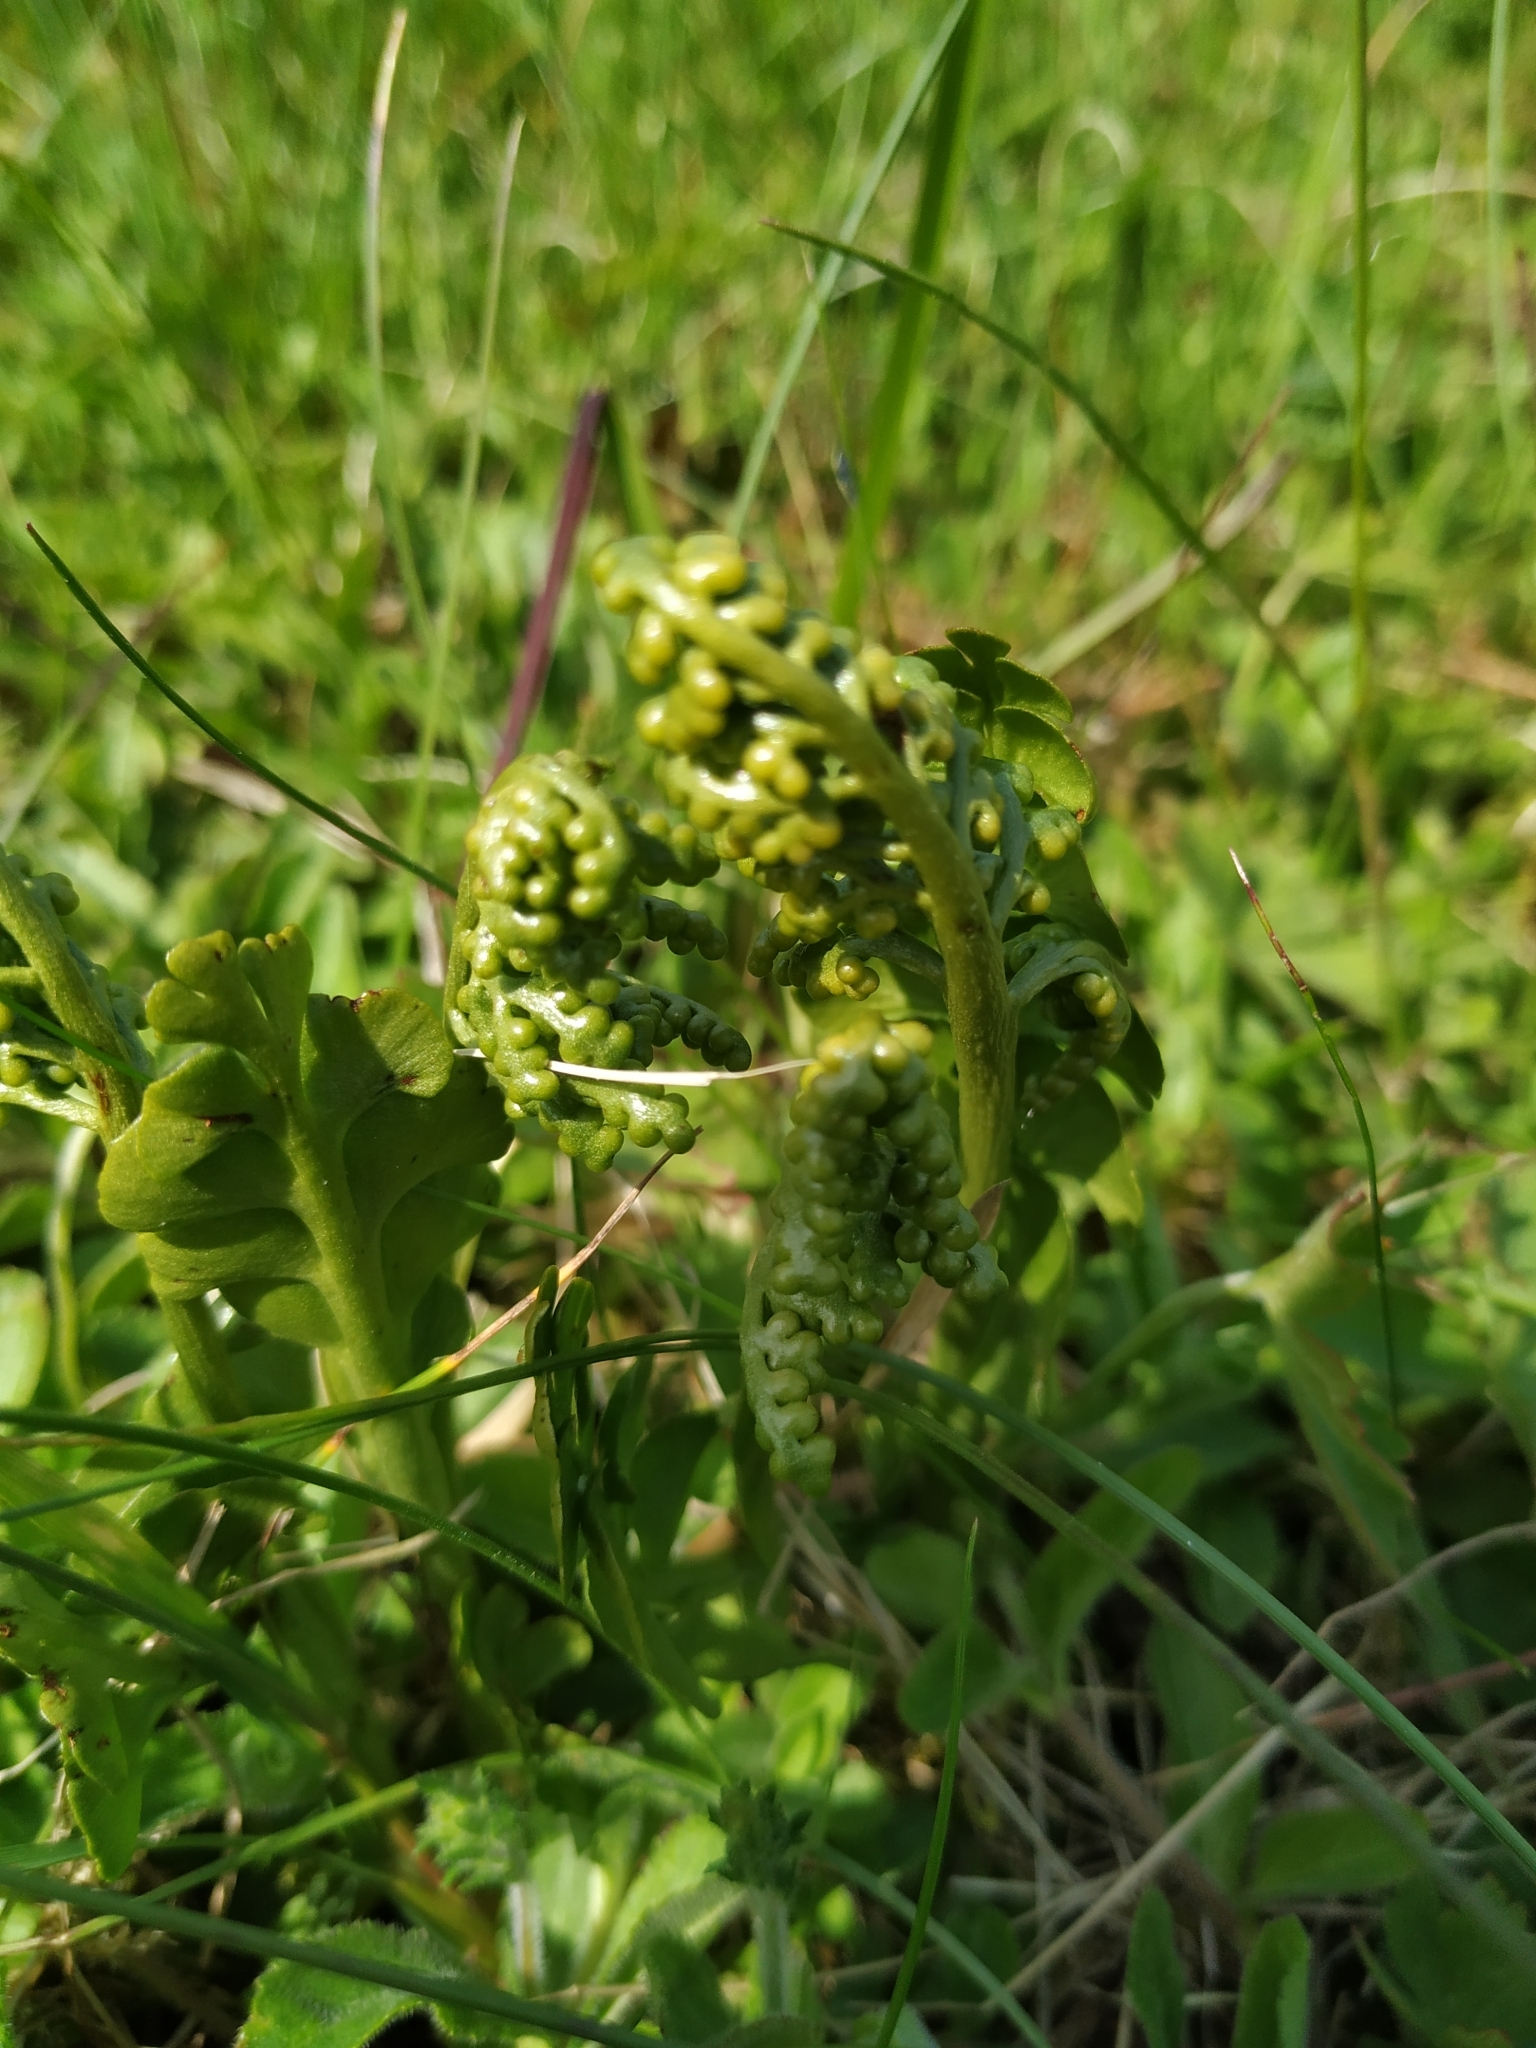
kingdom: Plantae
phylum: Tracheophyta
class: Polypodiopsida
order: Ophioglossales
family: Ophioglossaceae
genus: Botrychium
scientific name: Botrychium lunaria
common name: Moonwort
